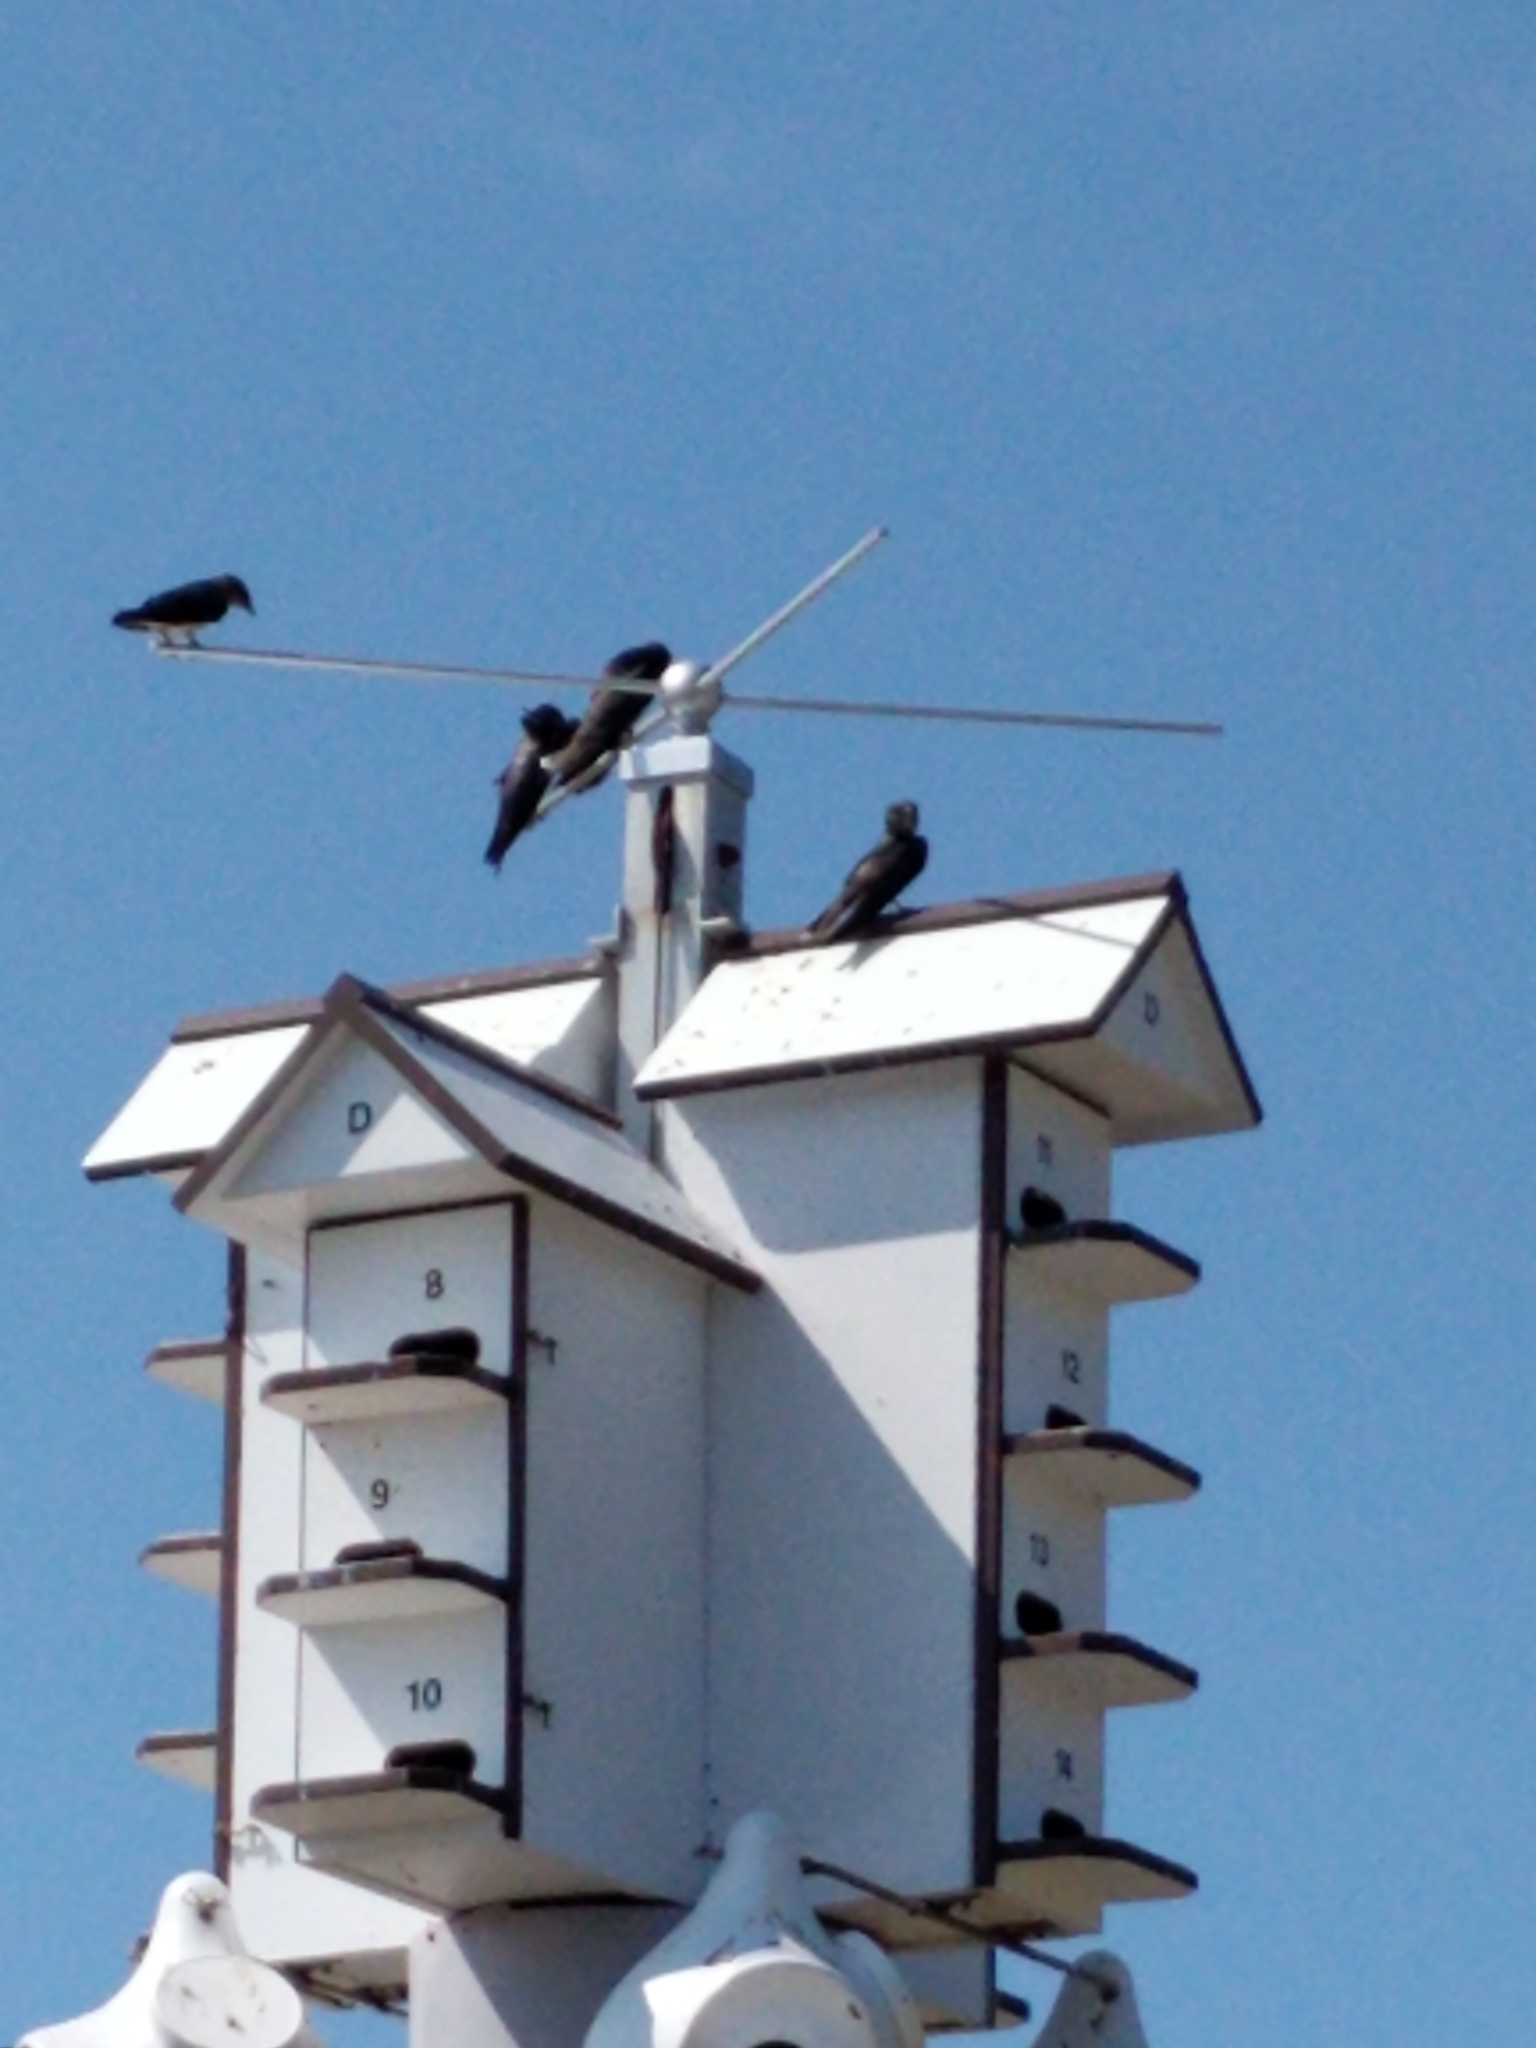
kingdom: Animalia
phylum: Chordata
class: Aves
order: Passeriformes
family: Hirundinidae
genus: Progne
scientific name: Progne subis
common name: Purple martin
